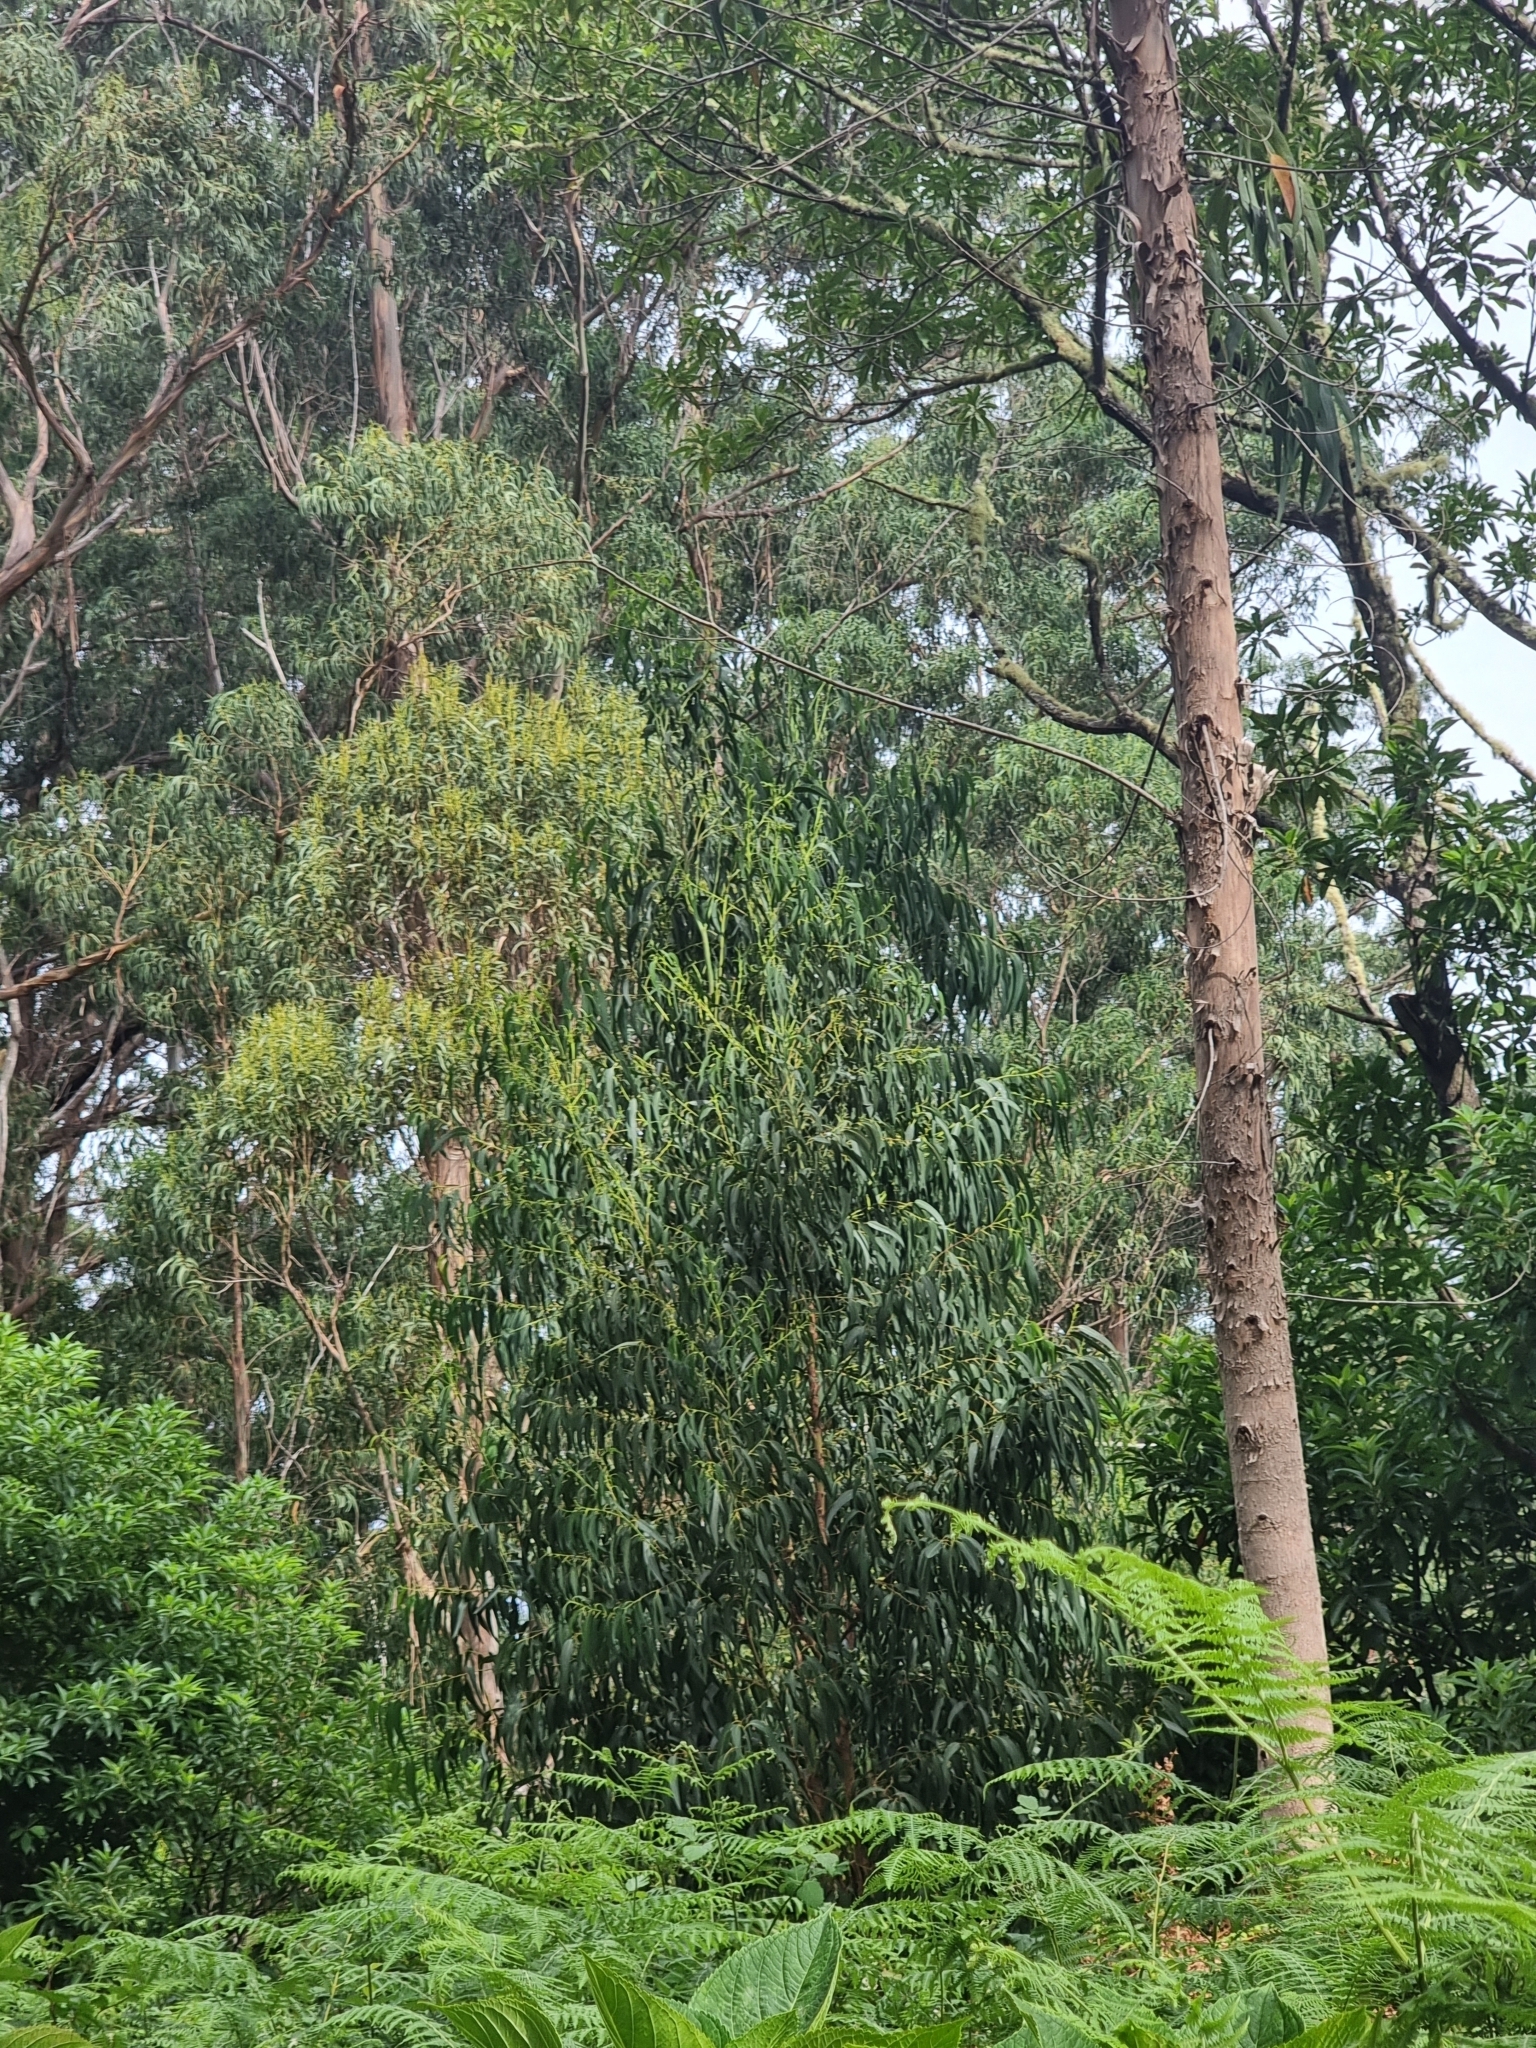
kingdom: Plantae
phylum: Tracheophyta
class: Magnoliopsida
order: Myrtales
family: Myrtaceae
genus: Eucalyptus
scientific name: Eucalyptus globulus
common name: Southern blue-gum
